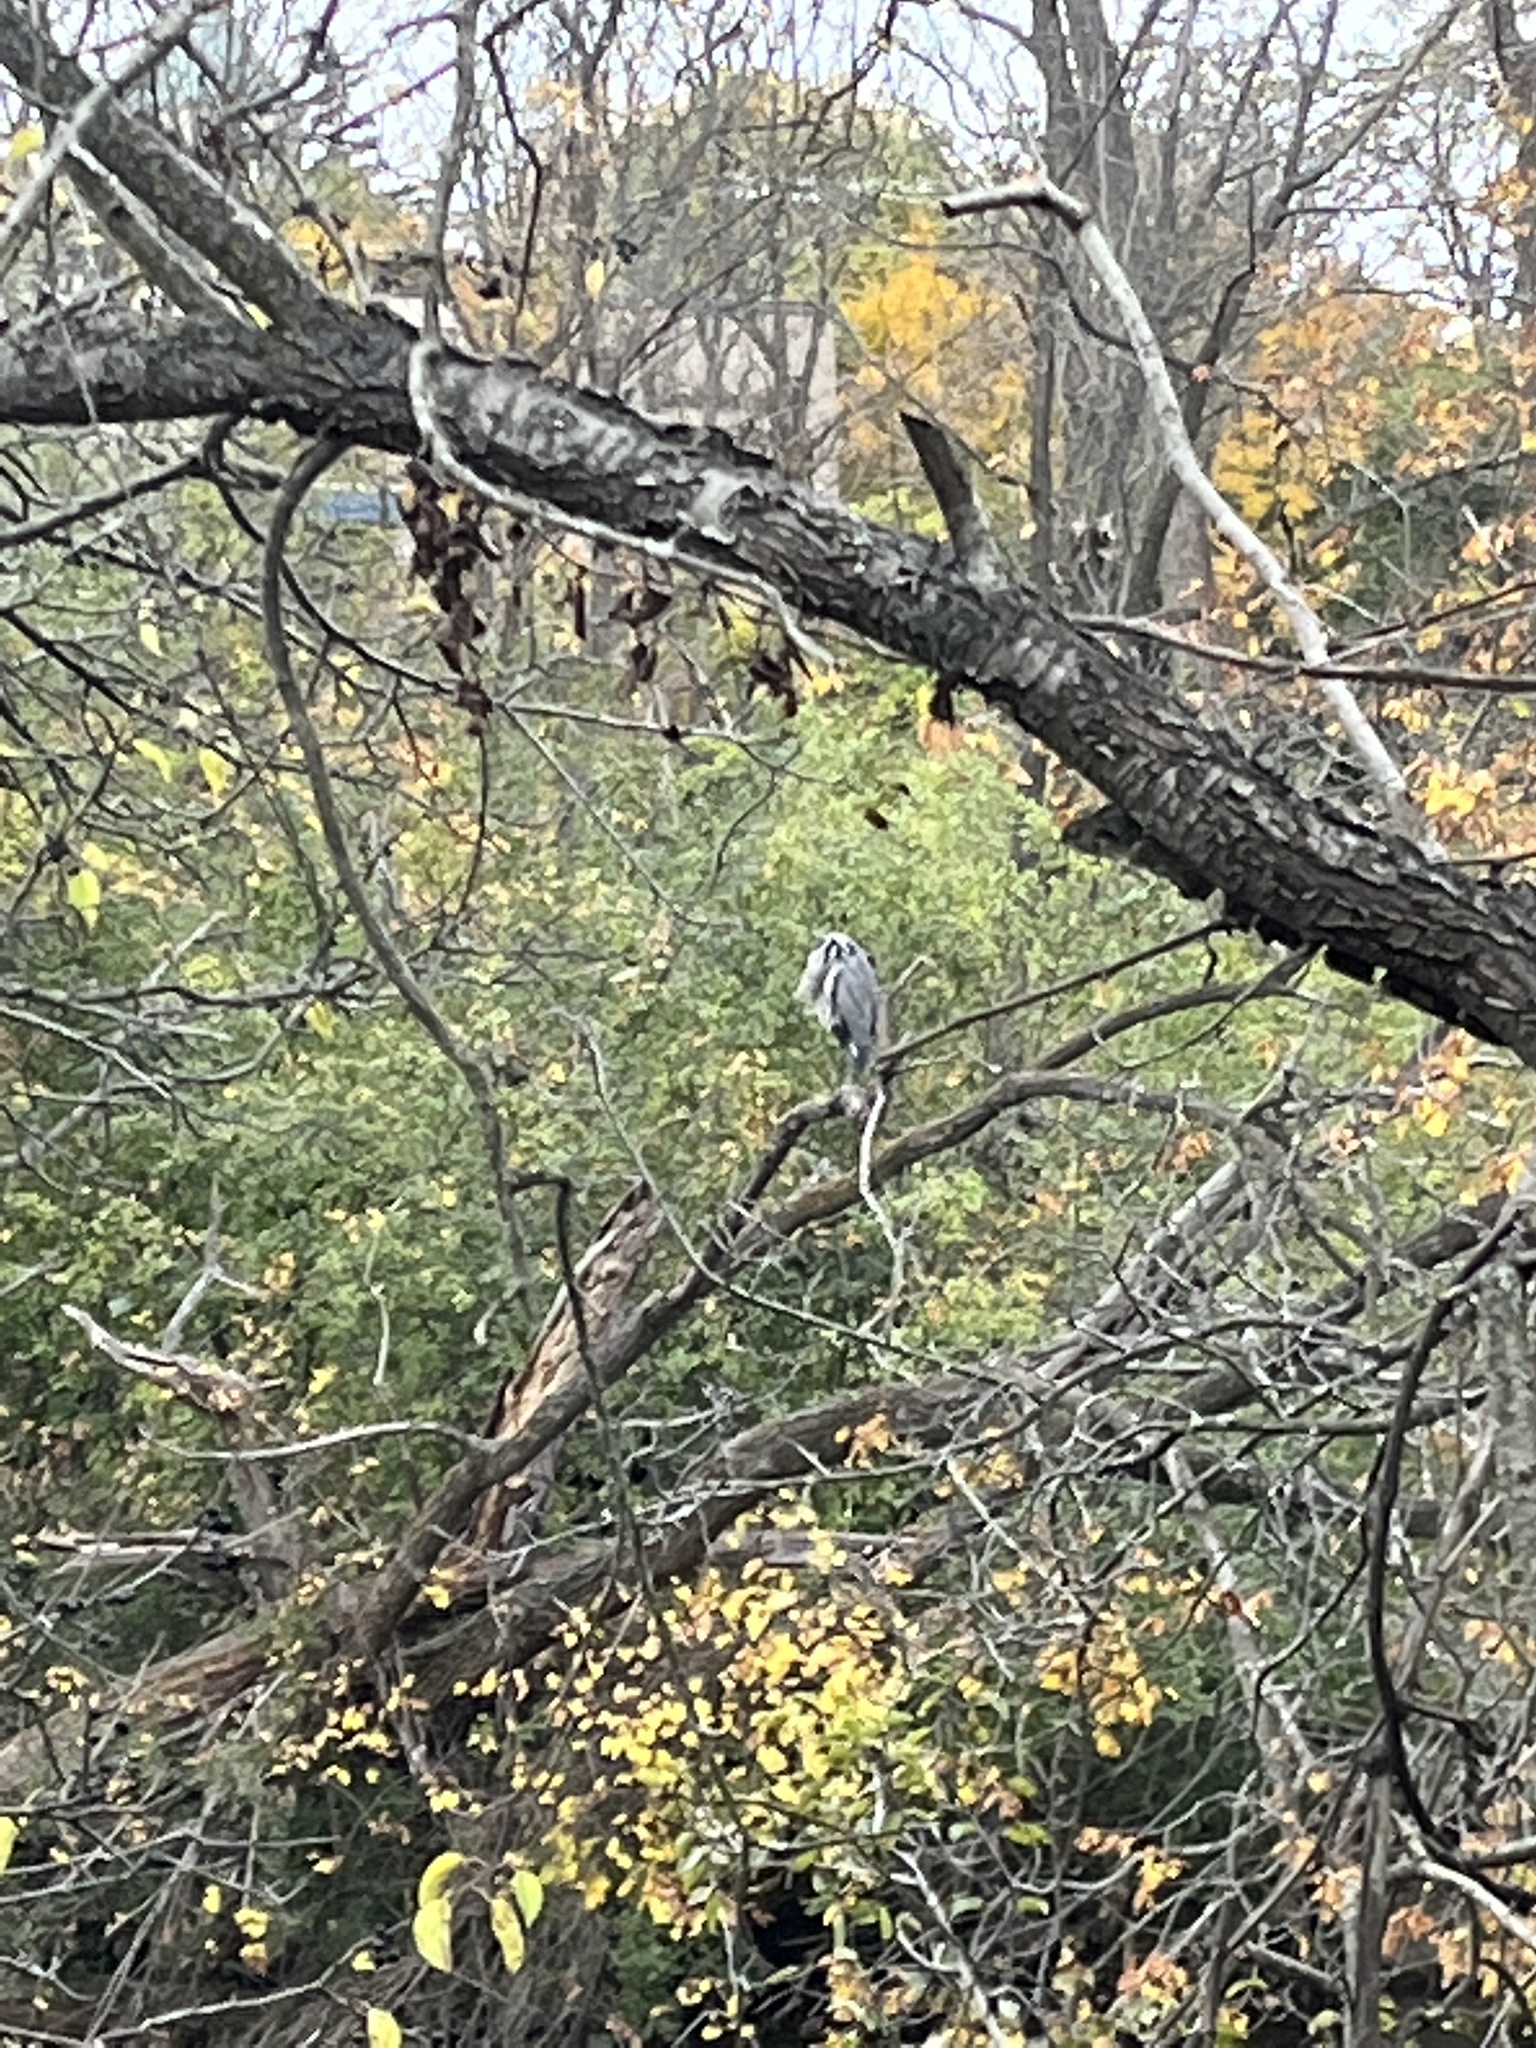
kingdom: Animalia
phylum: Chordata
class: Aves
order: Pelecaniformes
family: Ardeidae
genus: Ardea
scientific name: Ardea herodias
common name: Great blue heron
